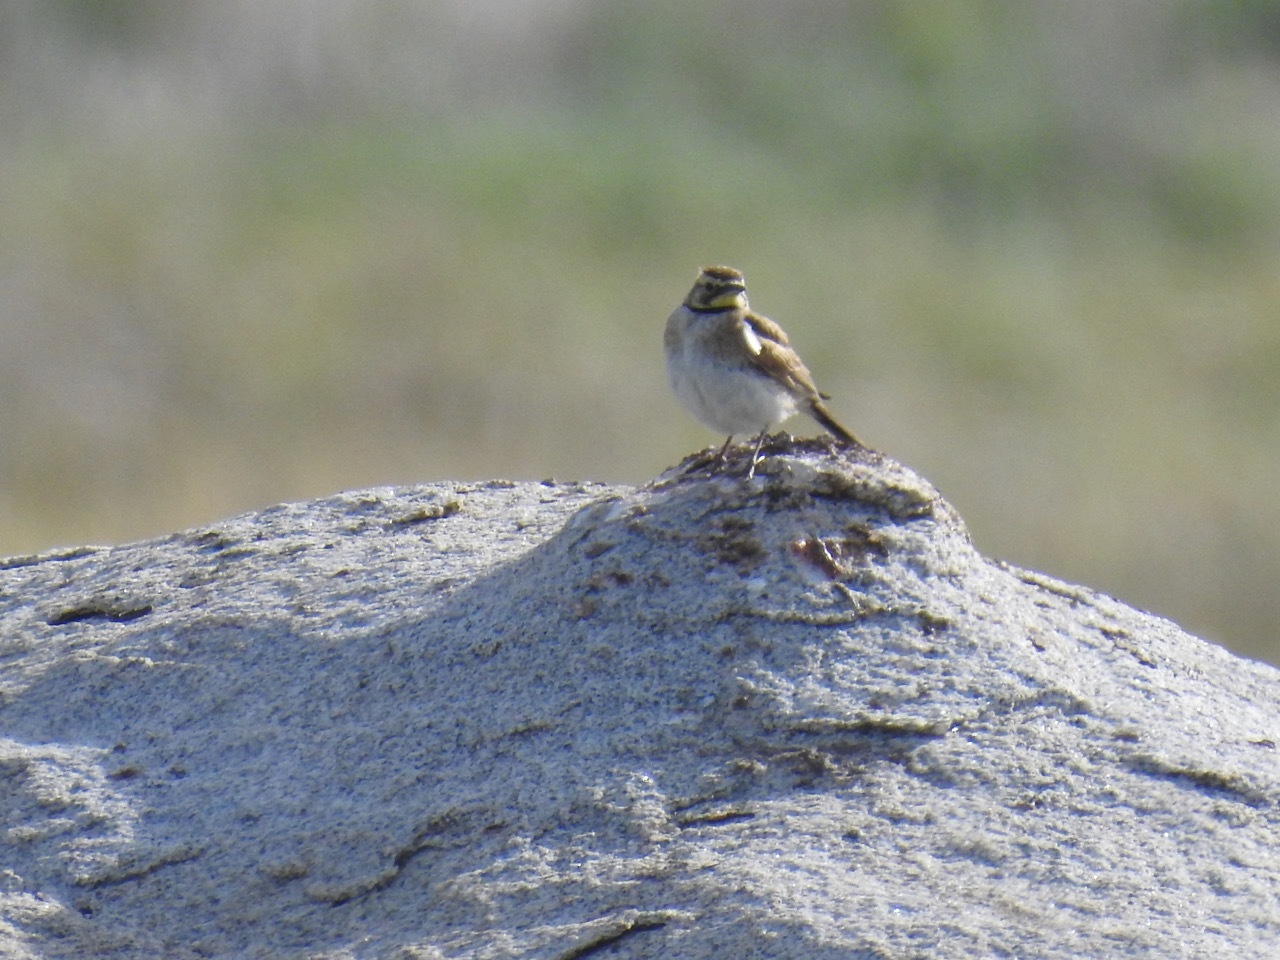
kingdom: Animalia
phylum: Chordata
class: Aves
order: Passeriformes
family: Alaudidae
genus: Eremophila
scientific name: Eremophila alpestris
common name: Horned lark
